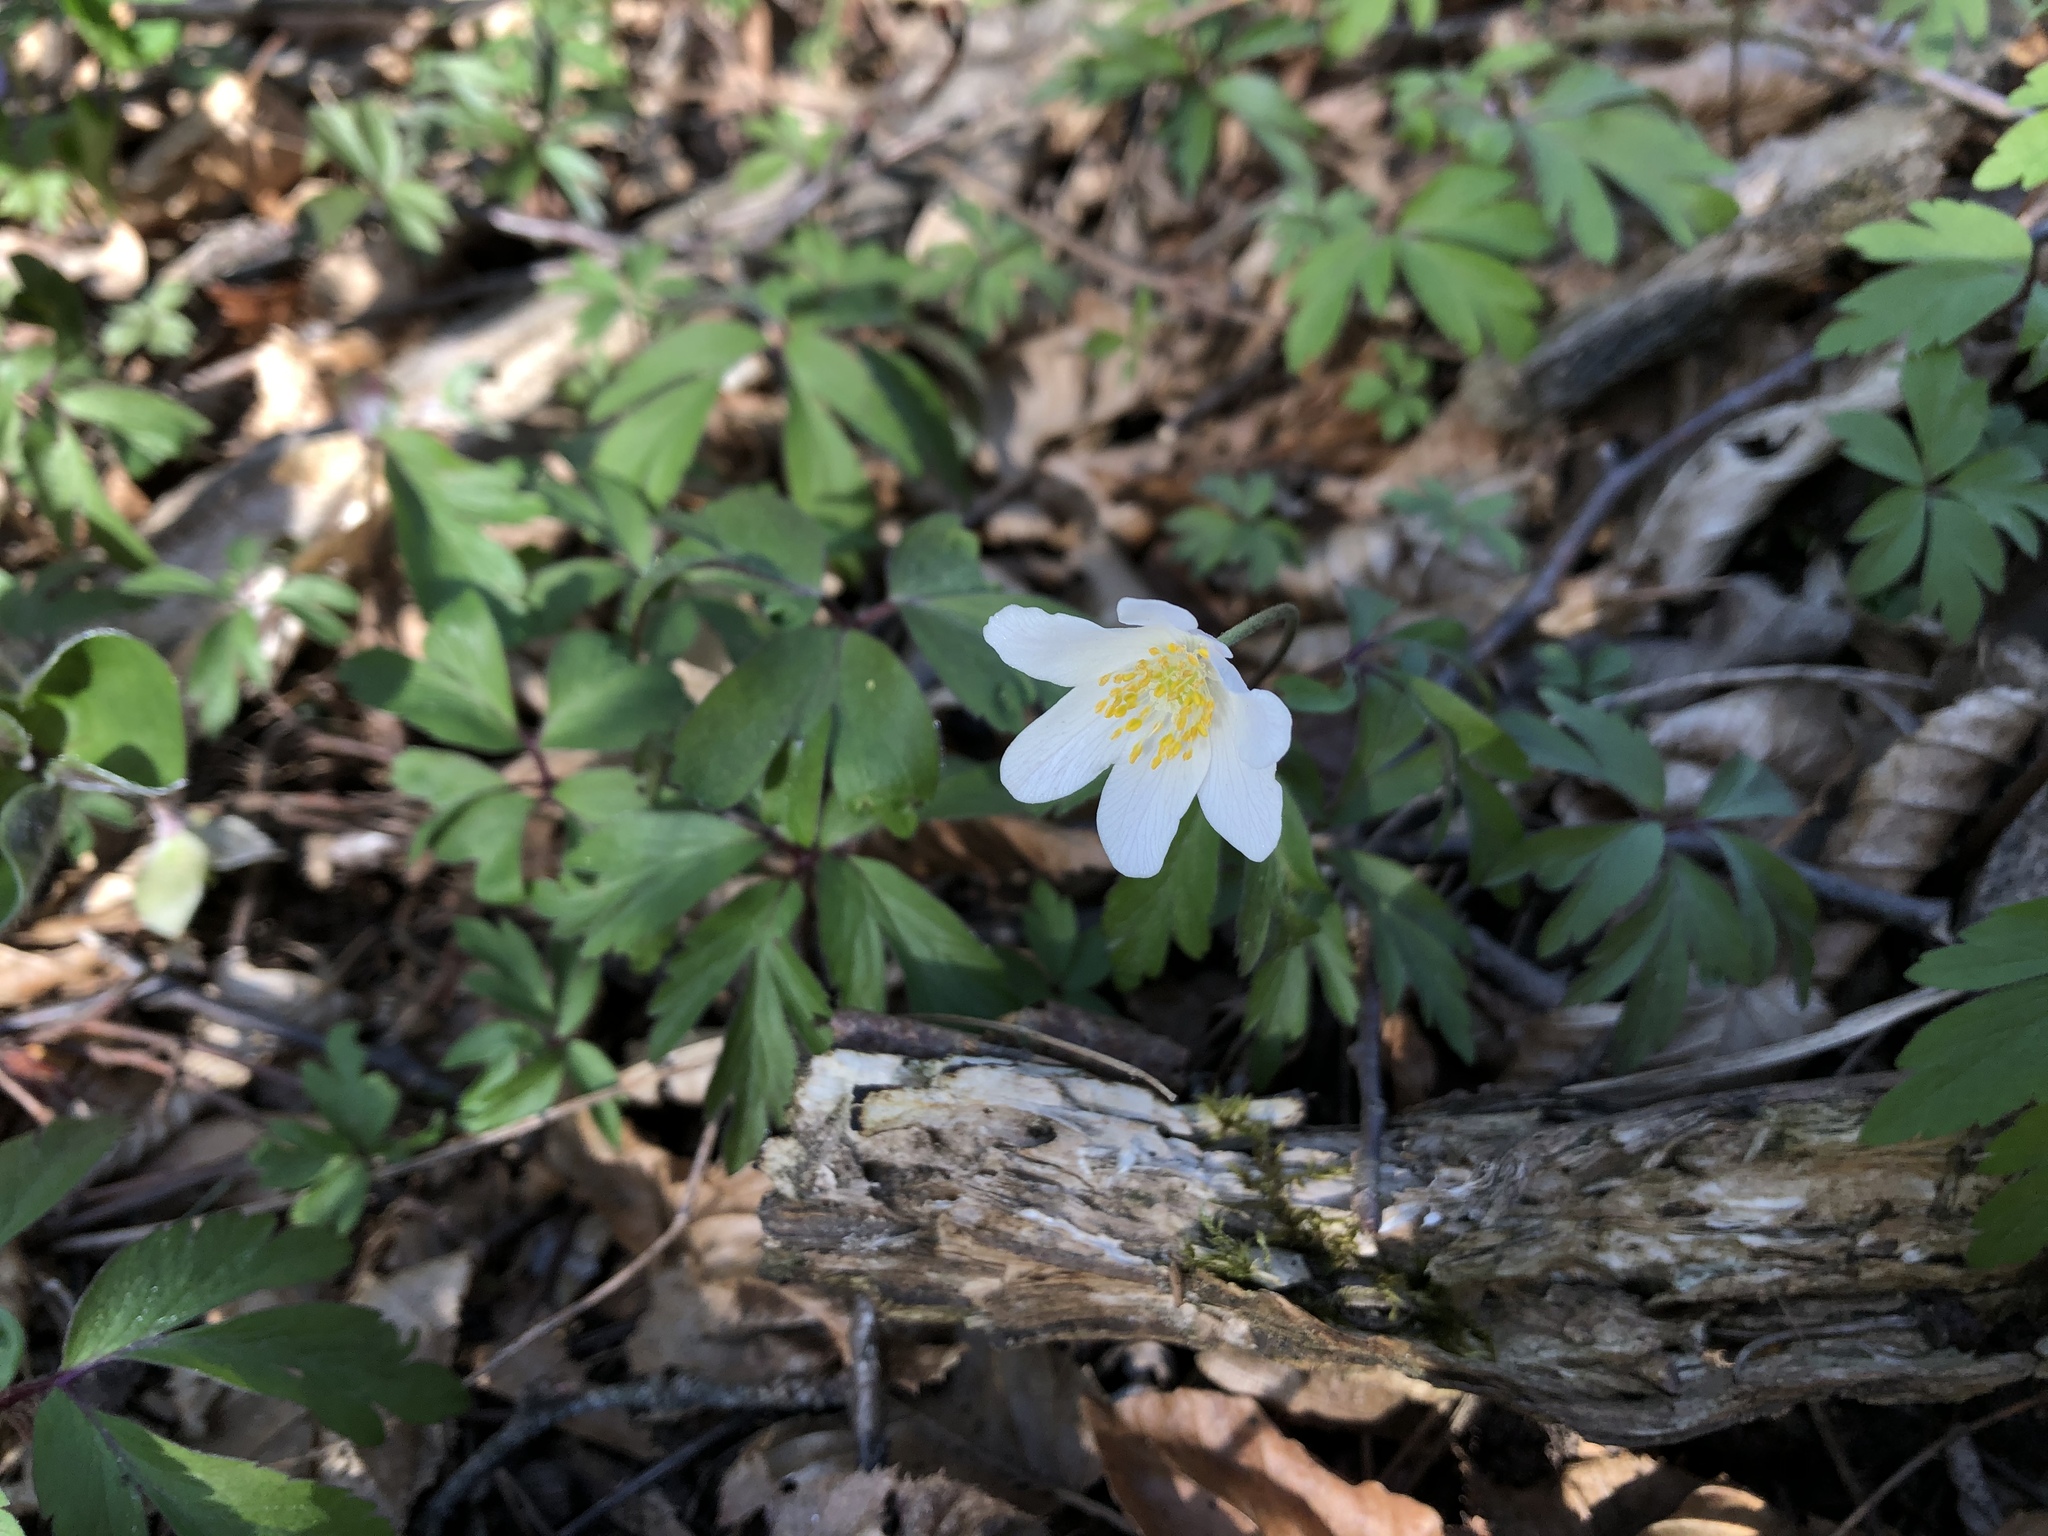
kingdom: Plantae
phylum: Tracheophyta
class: Magnoliopsida
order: Ranunculales
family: Ranunculaceae
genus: Anemone
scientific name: Anemone nemorosa
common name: Wood anemone
